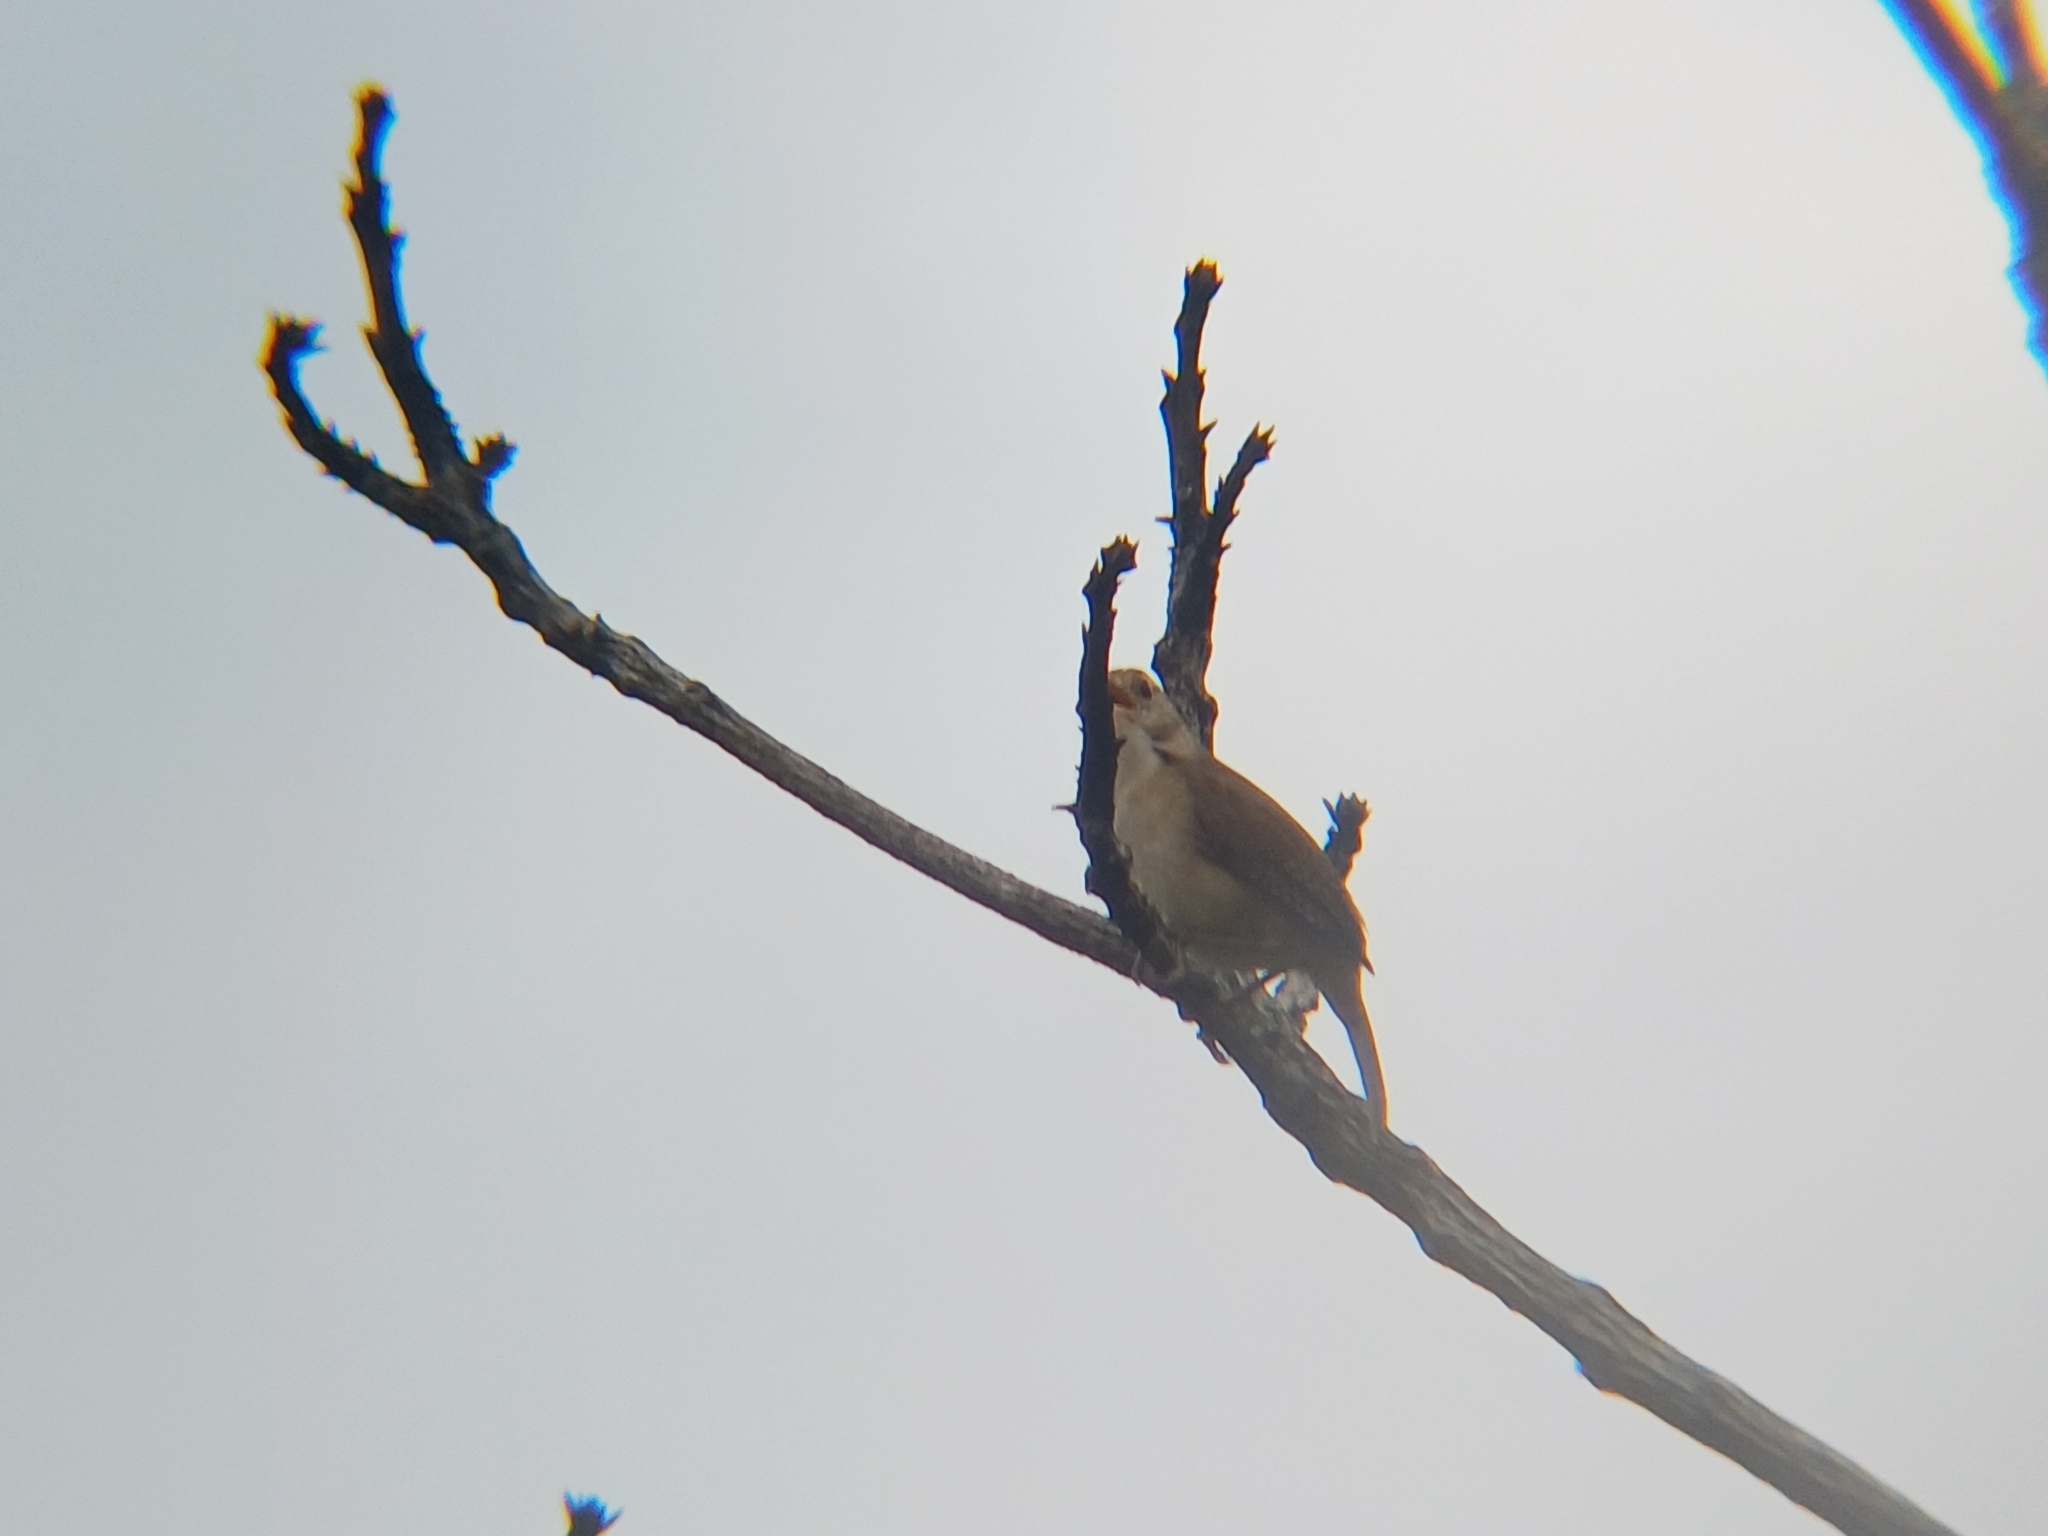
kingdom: Animalia
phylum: Chordata
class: Aves
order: Passeriformes
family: Troglodytidae
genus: Troglodytes
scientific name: Troglodytes aedon
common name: House wren
